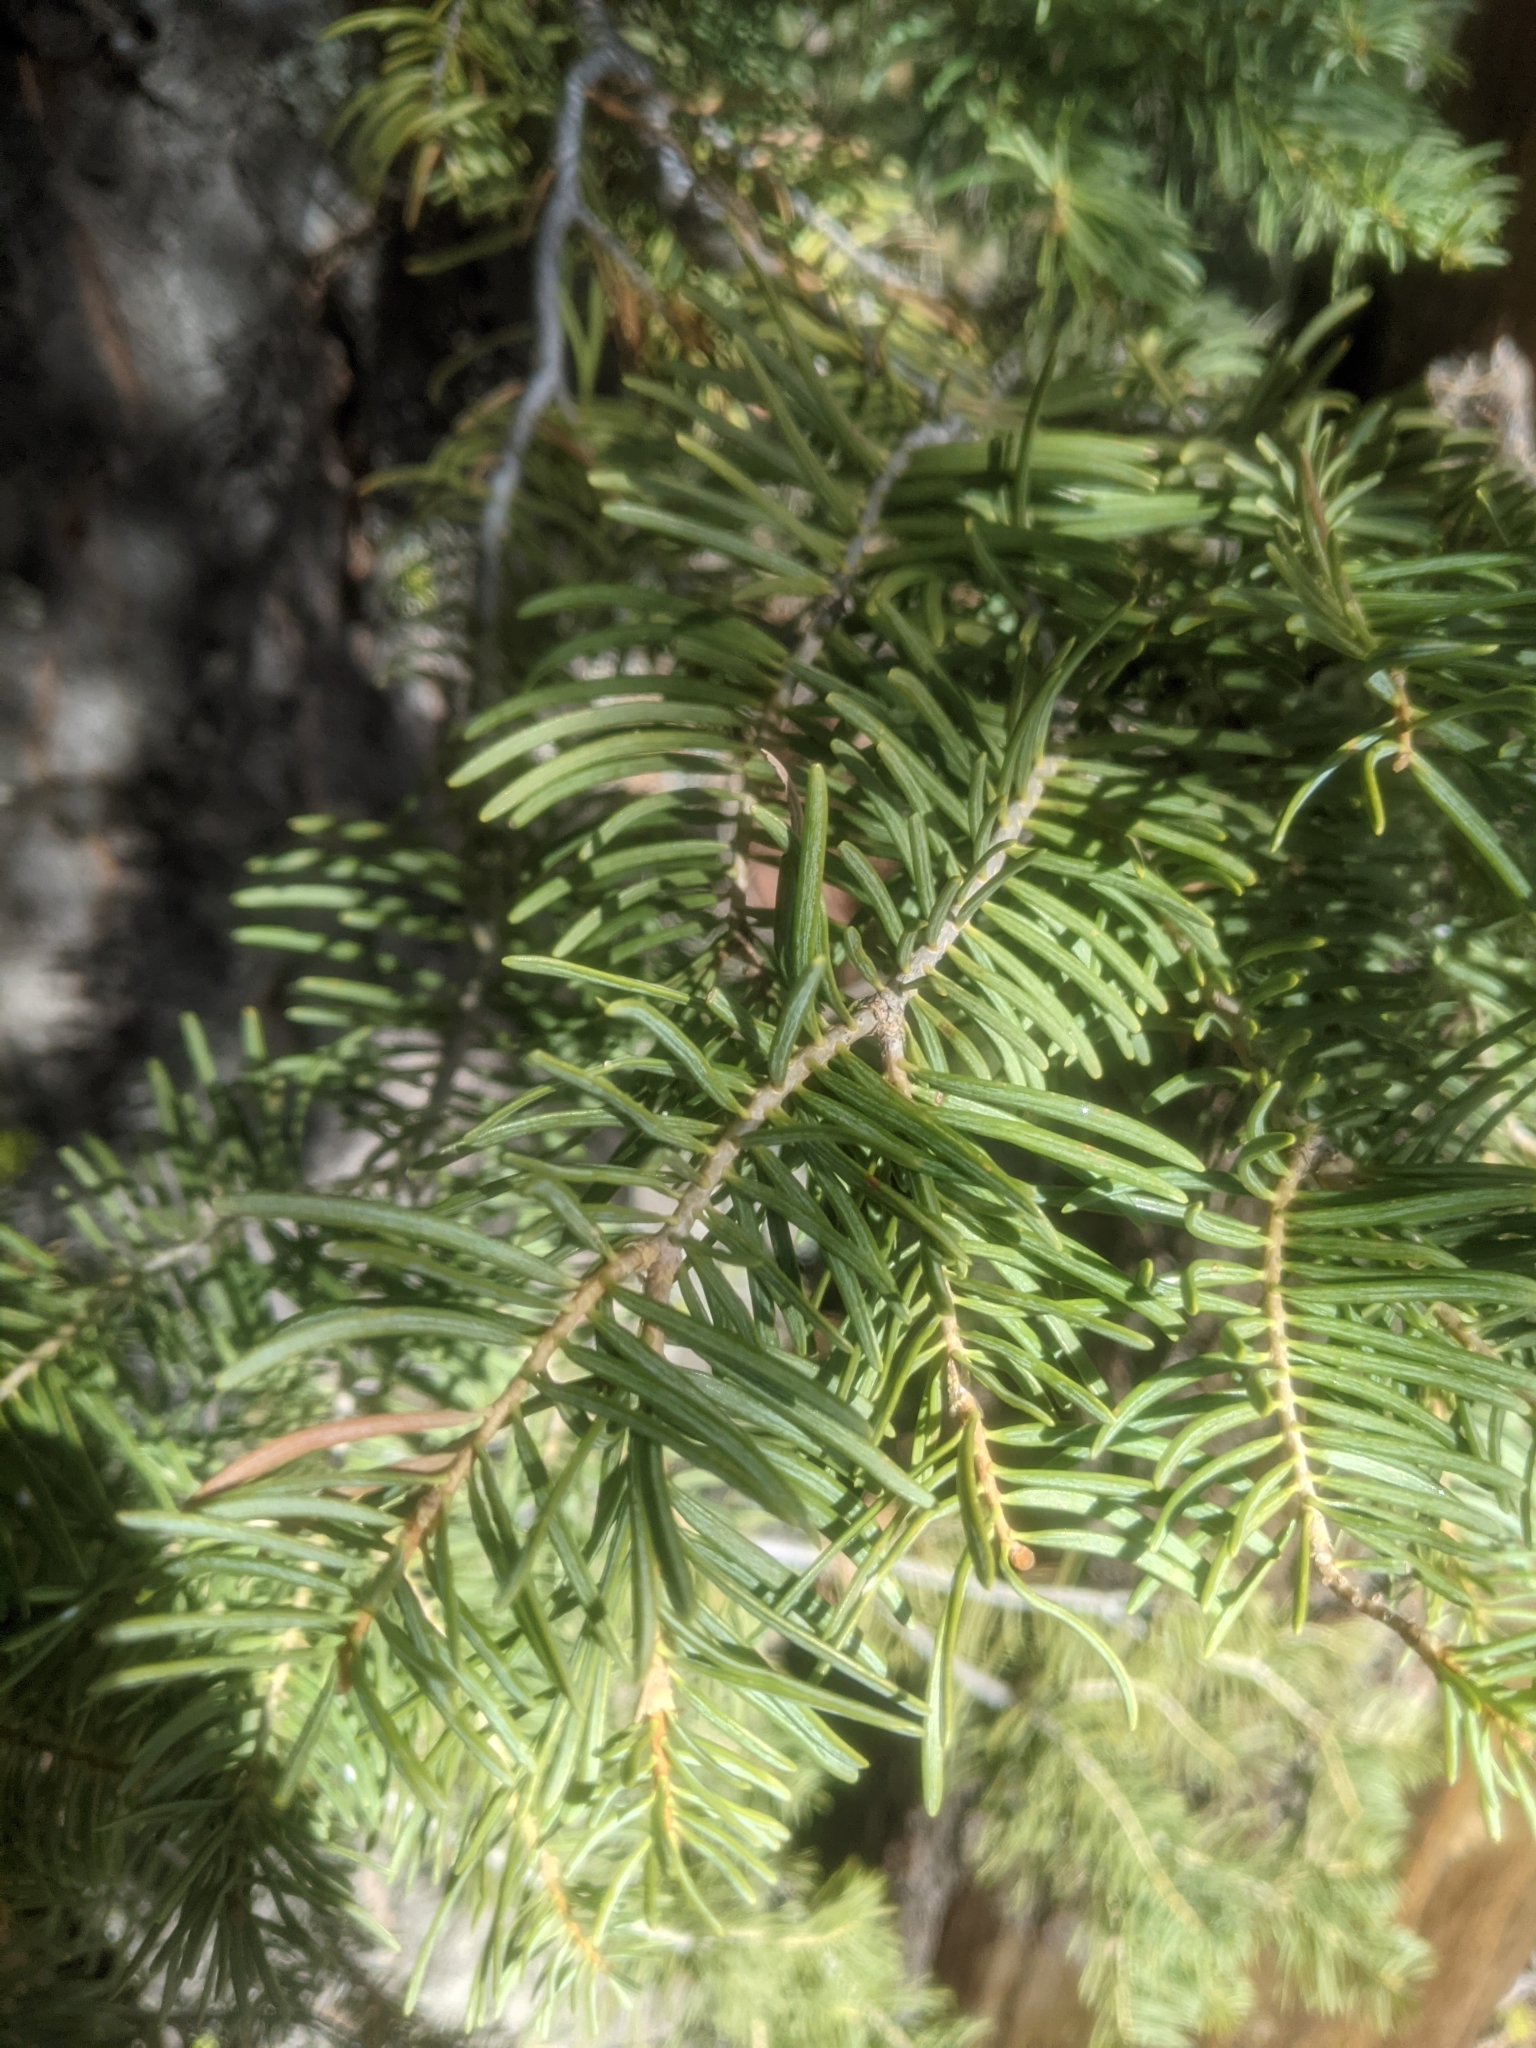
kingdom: Plantae
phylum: Tracheophyta
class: Pinopsida
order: Pinales
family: Pinaceae
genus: Abies
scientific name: Abies concolor
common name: Colorado fir
